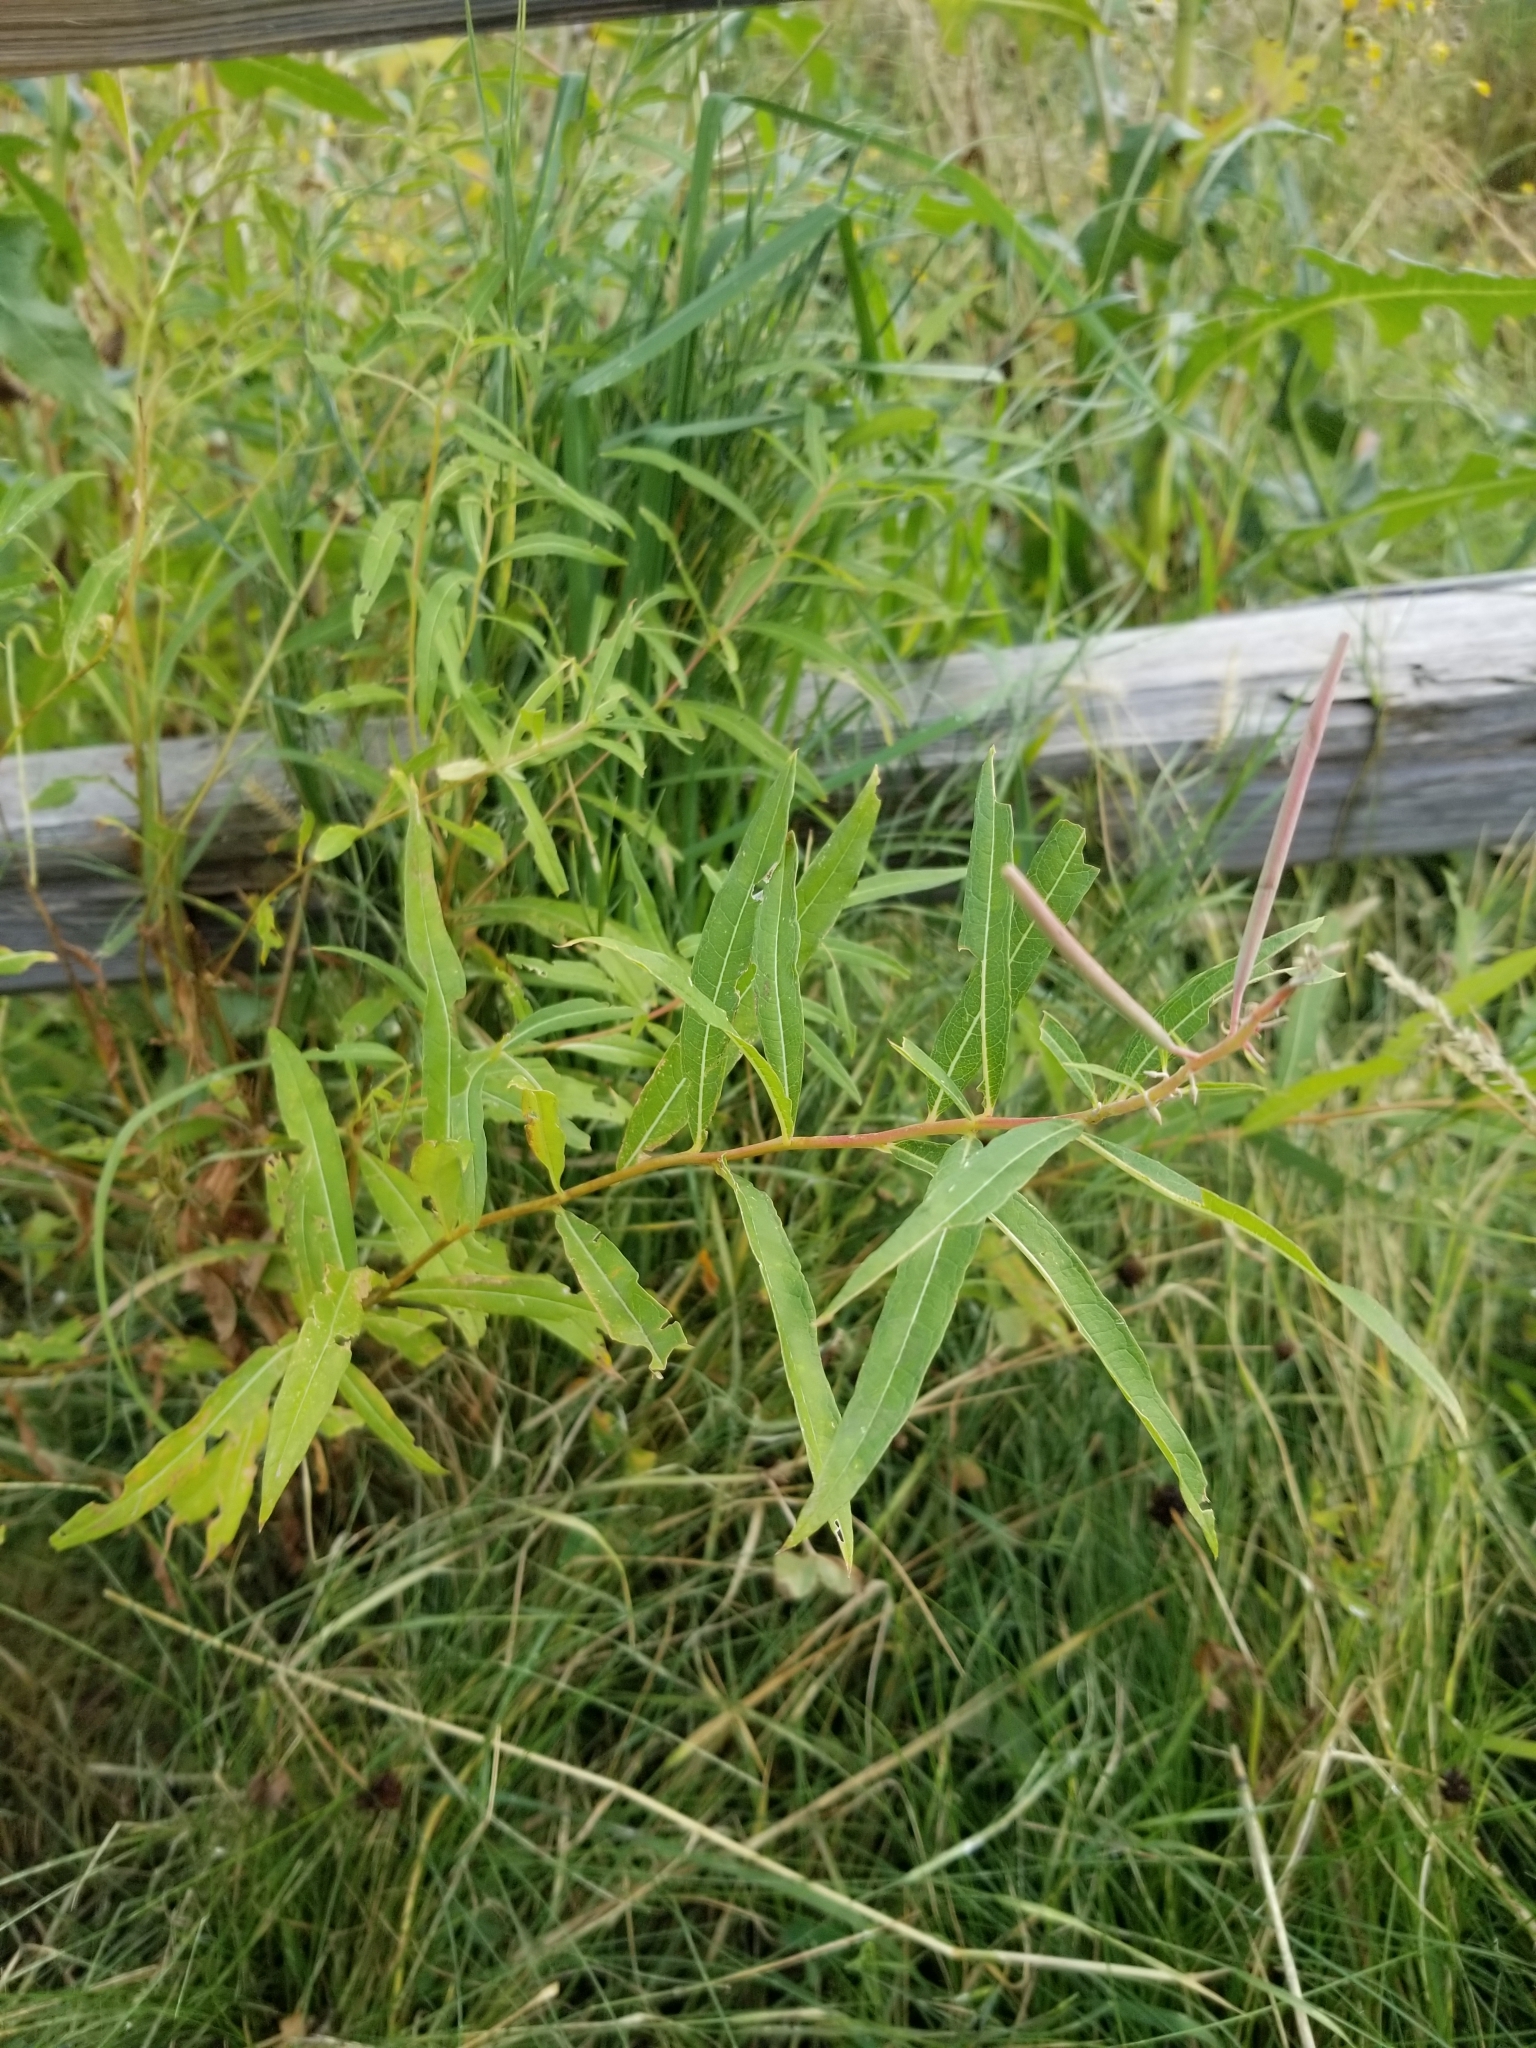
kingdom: Plantae
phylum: Tracheophyta
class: Magnoliopsida
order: Myrtales
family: Onagraceae
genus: Chamaenerion
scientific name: Chamaenerion angustifolium
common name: Fireweed
